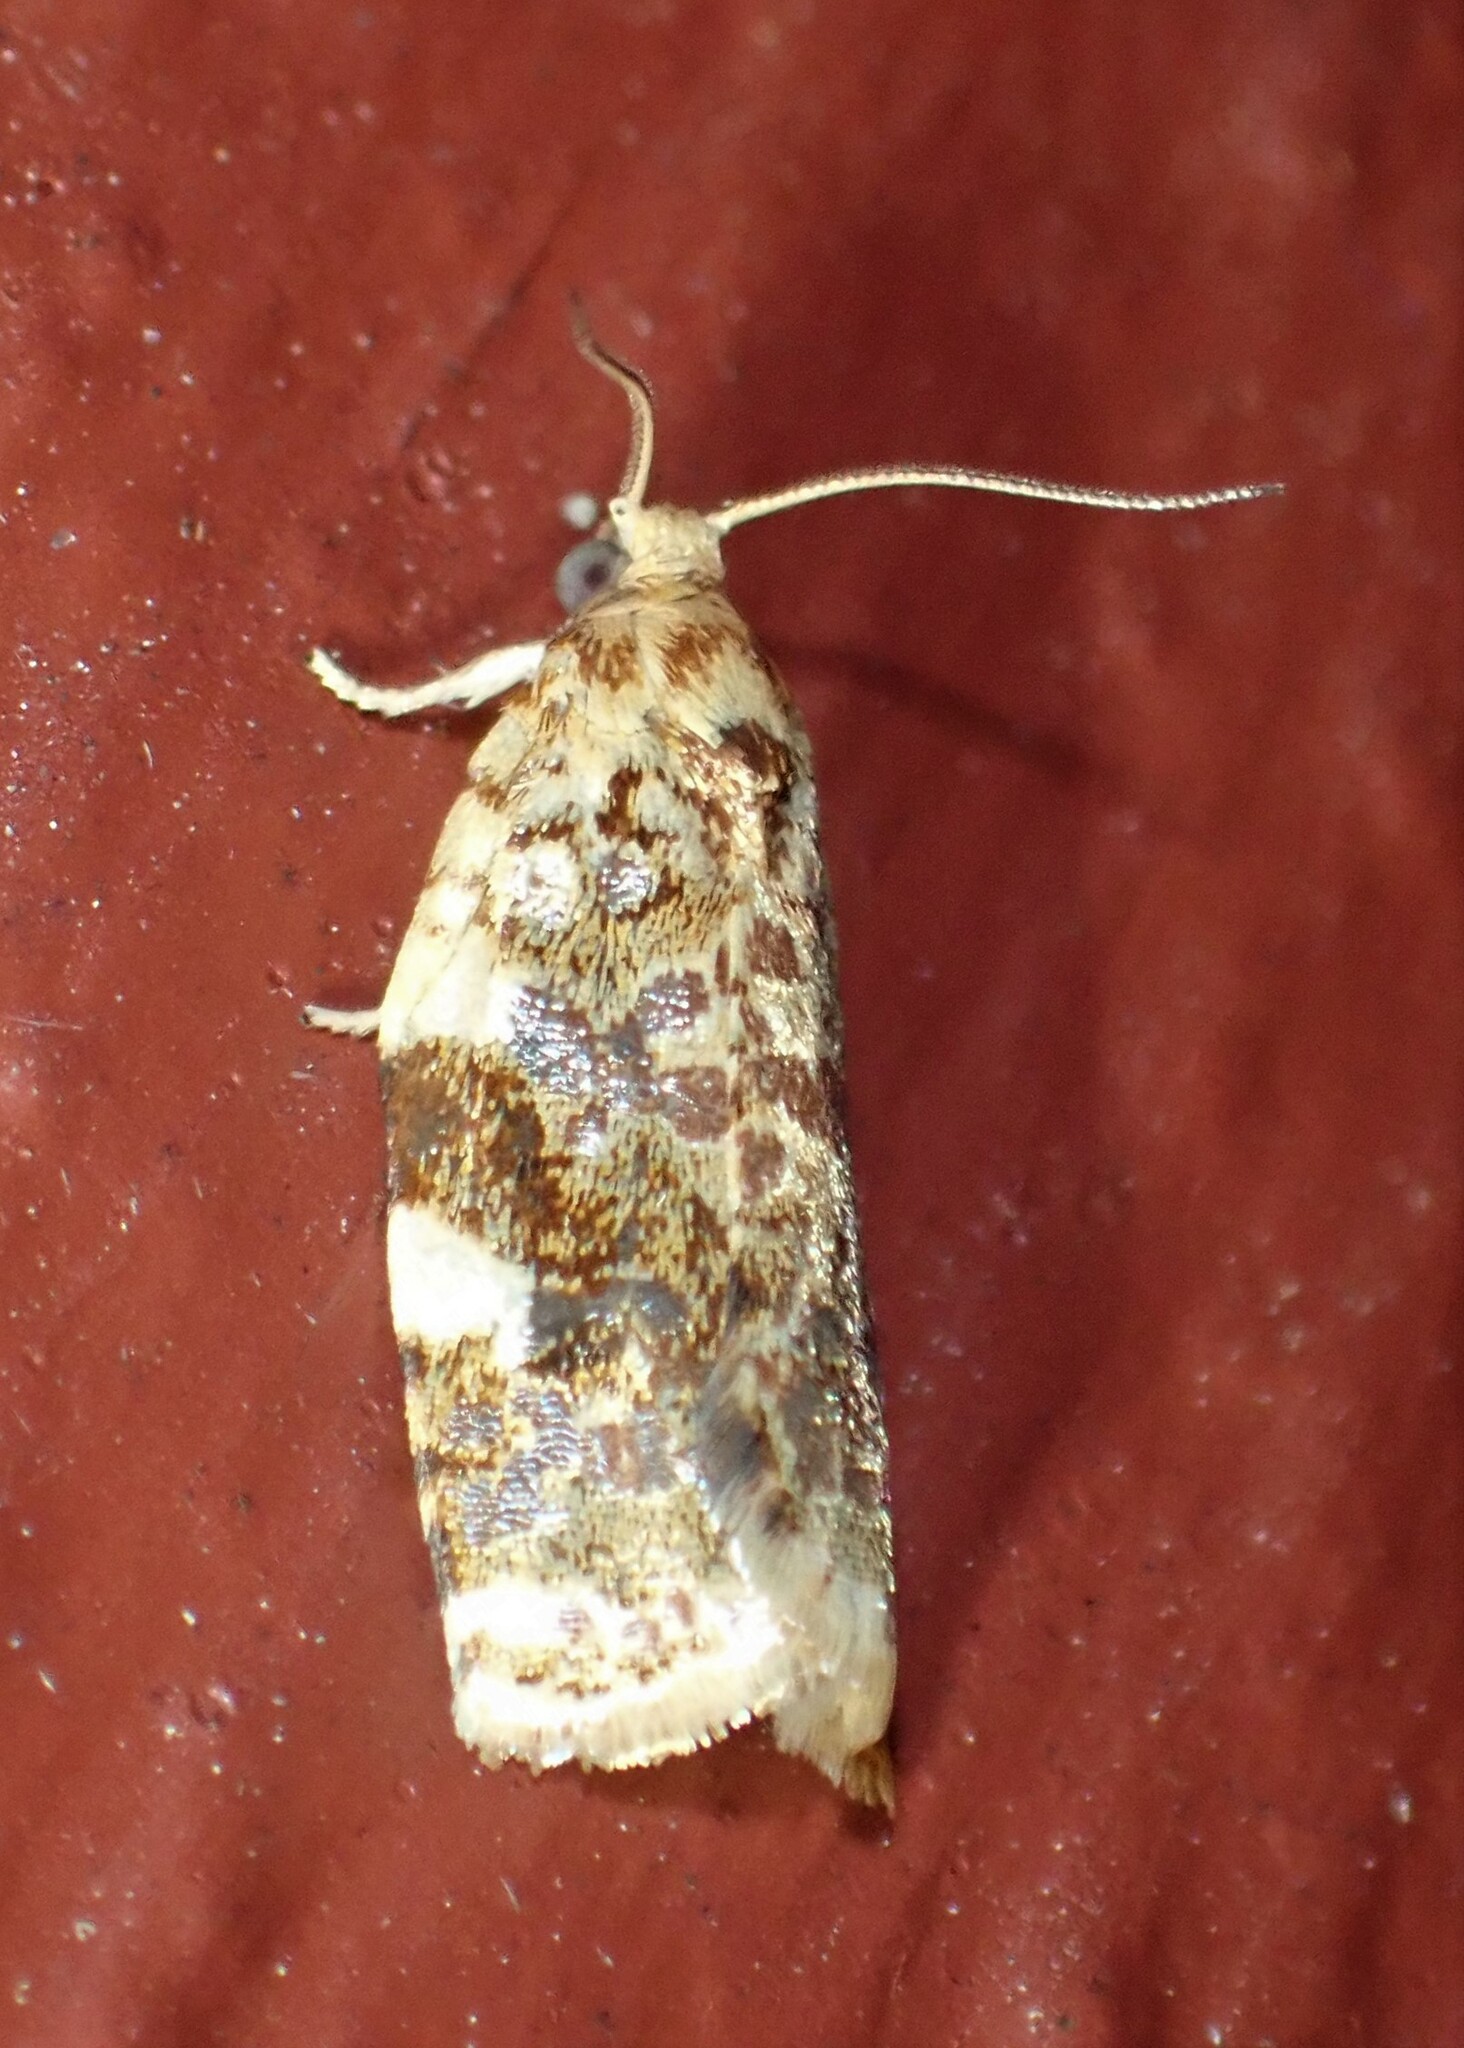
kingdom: Animalia
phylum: Arthropoda
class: Insecta
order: Lepidoptera
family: Tortricidae
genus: Archips
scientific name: Archips argyrospila
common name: Fruit-tree leafroller moth
